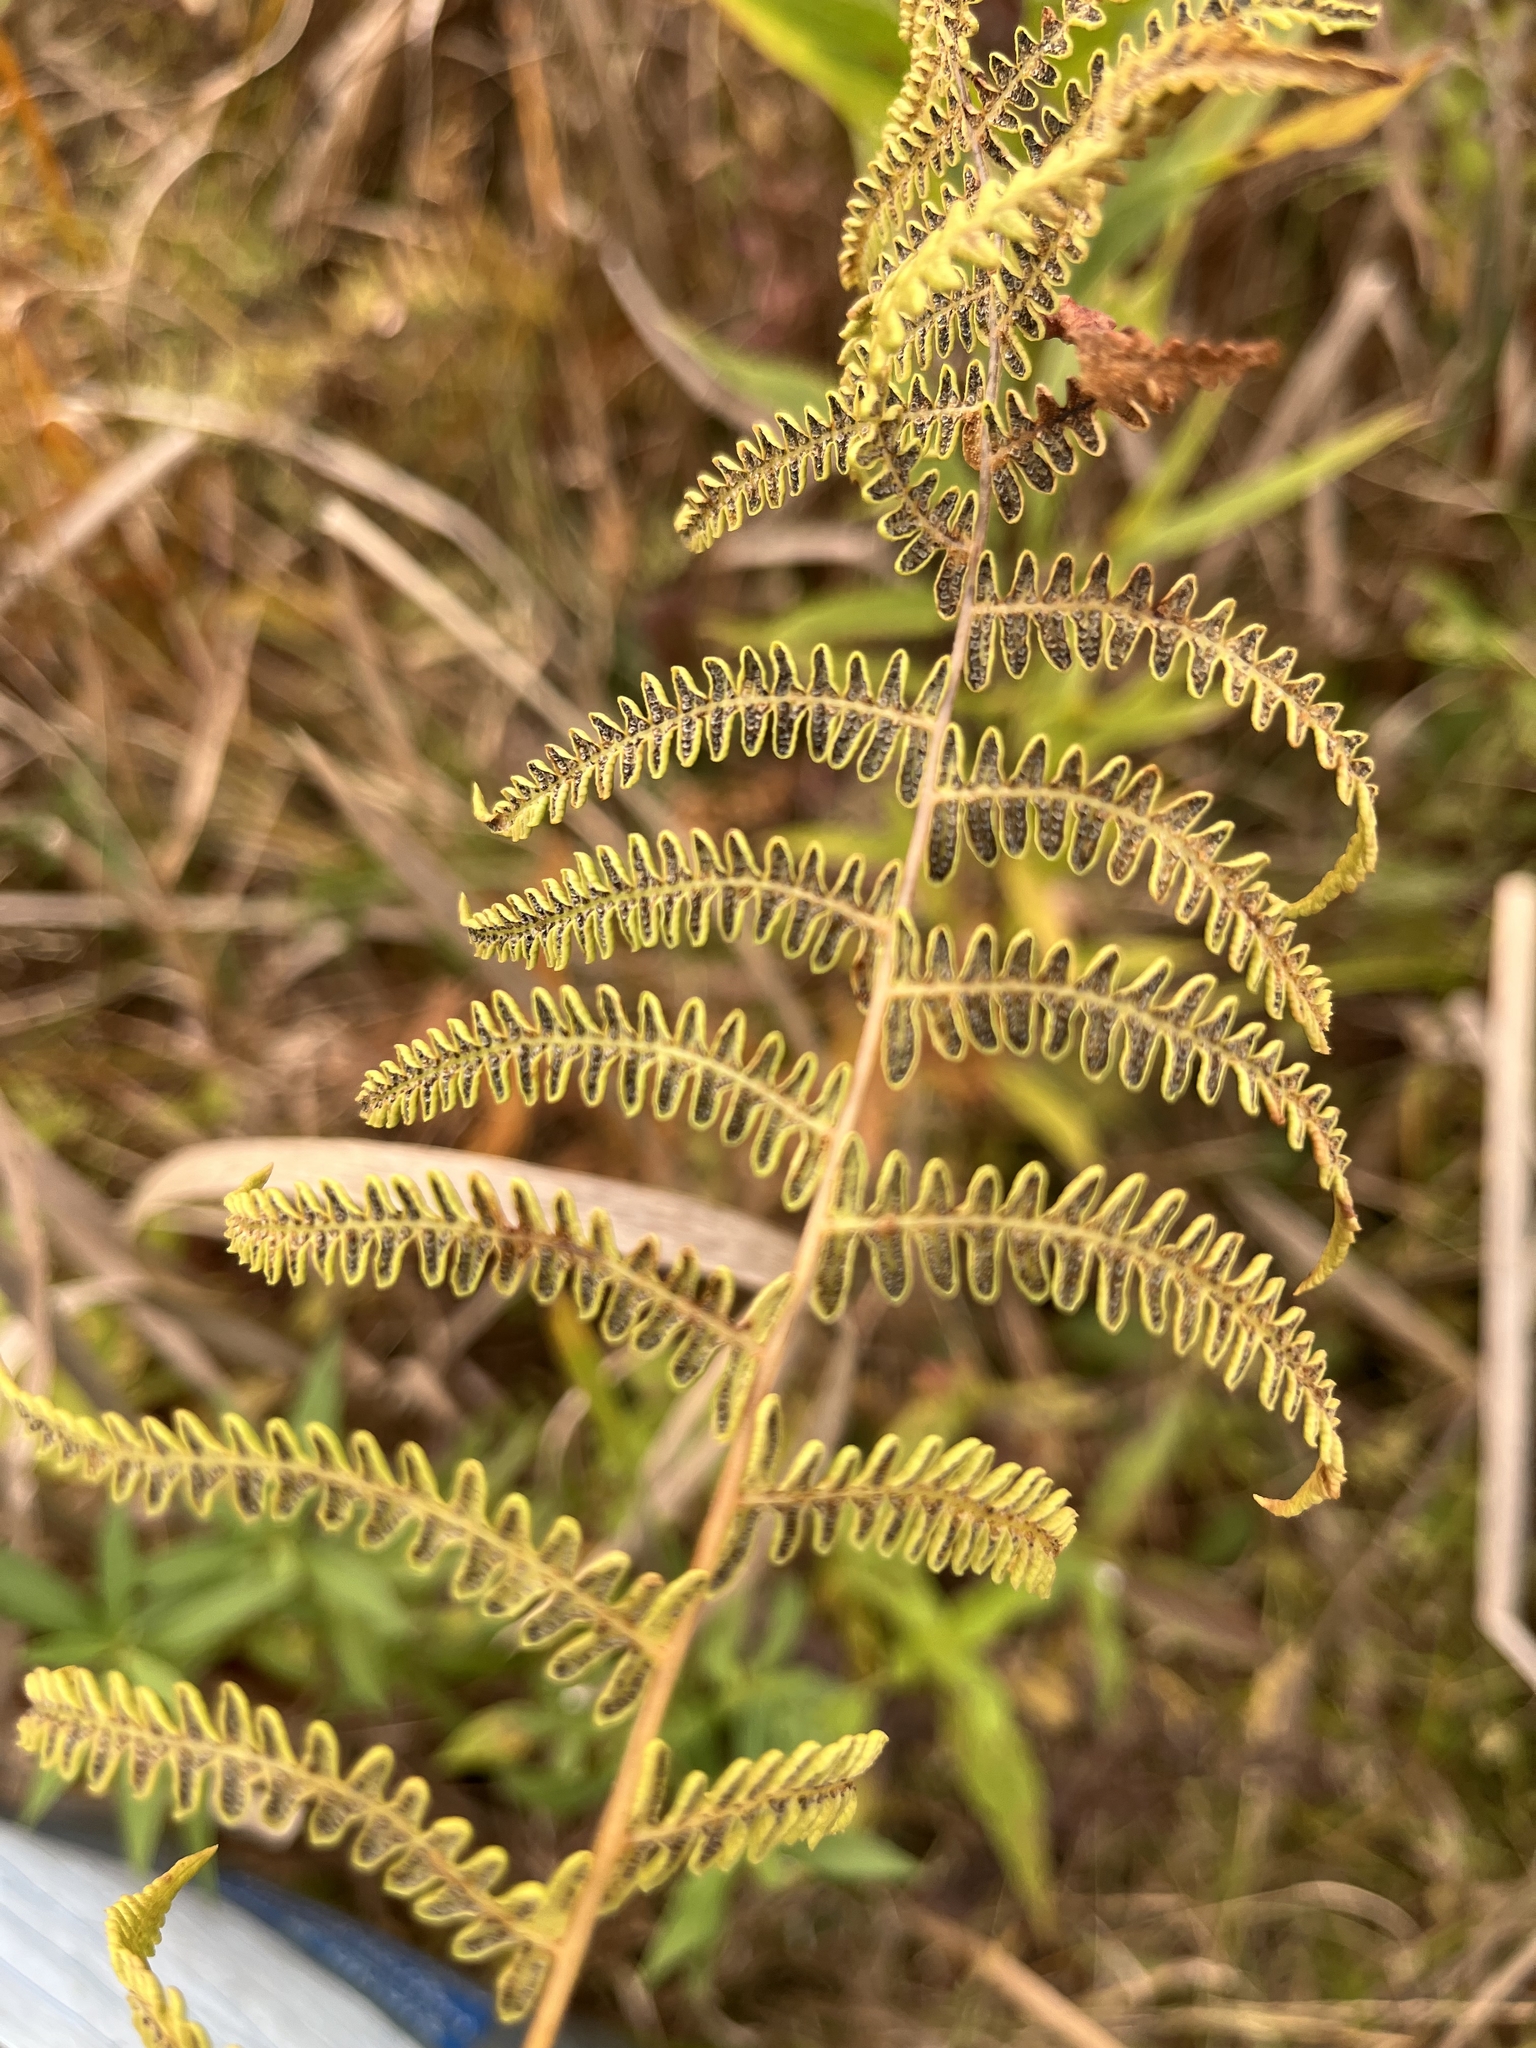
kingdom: Plantae
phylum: Tracheophyta
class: Polypodiopsida
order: Polypodiales
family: Thelypteridaceae
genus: Thelypteris
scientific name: Thelypteris palustris
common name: Marsh fern
